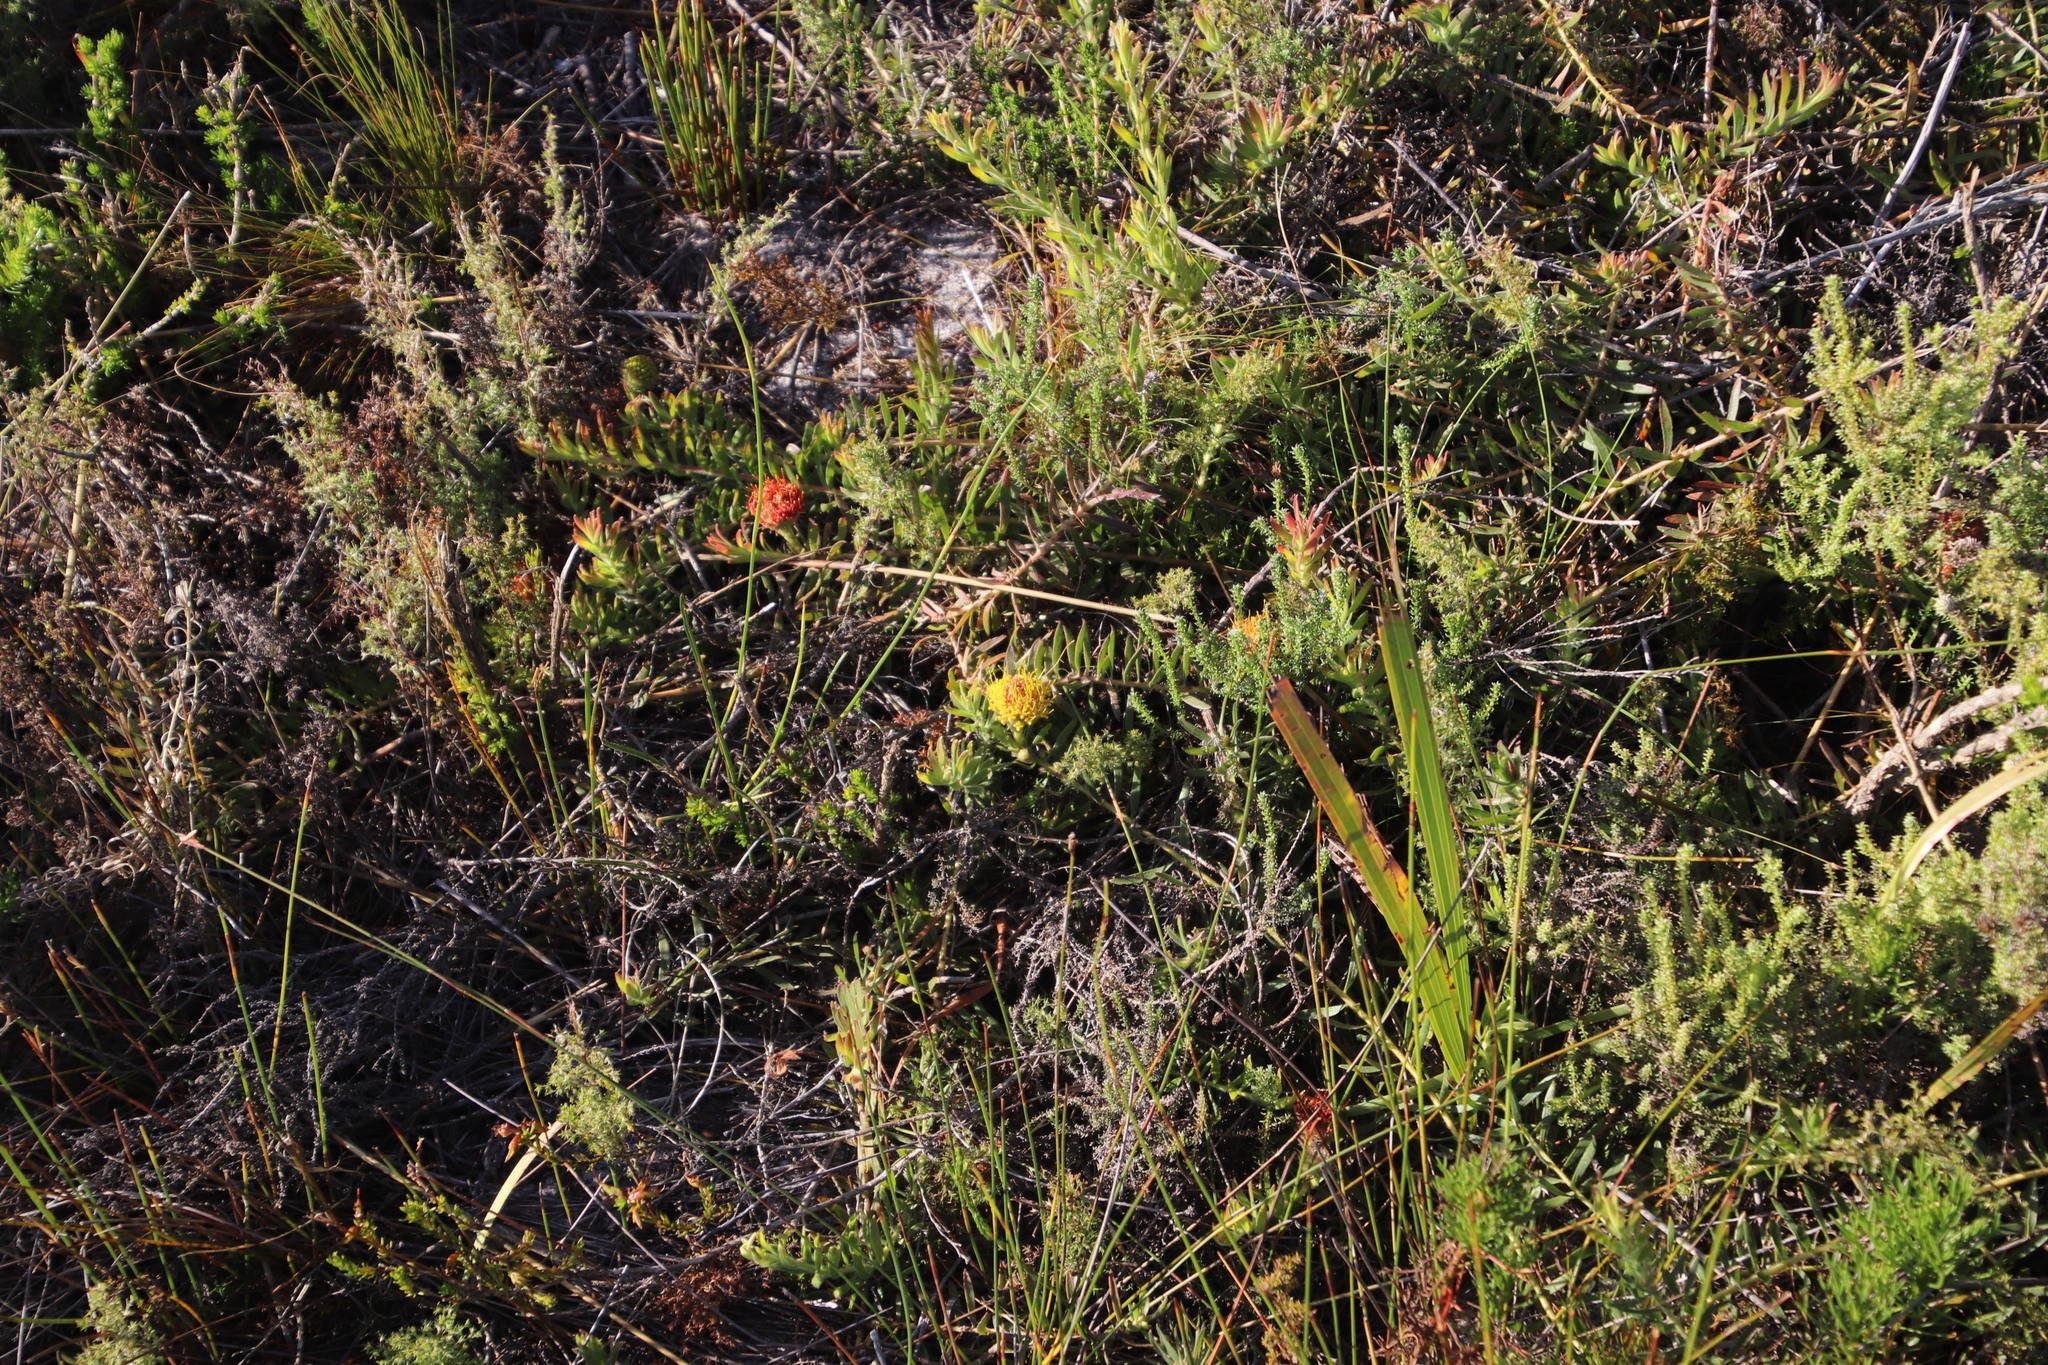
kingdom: Plantae
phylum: Tracheophyta
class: Magnoliopsida
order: Proteales
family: Proteaceae
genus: Leucospermum
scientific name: Leucospermum prostratum
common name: Yellow-trailing pincushion
